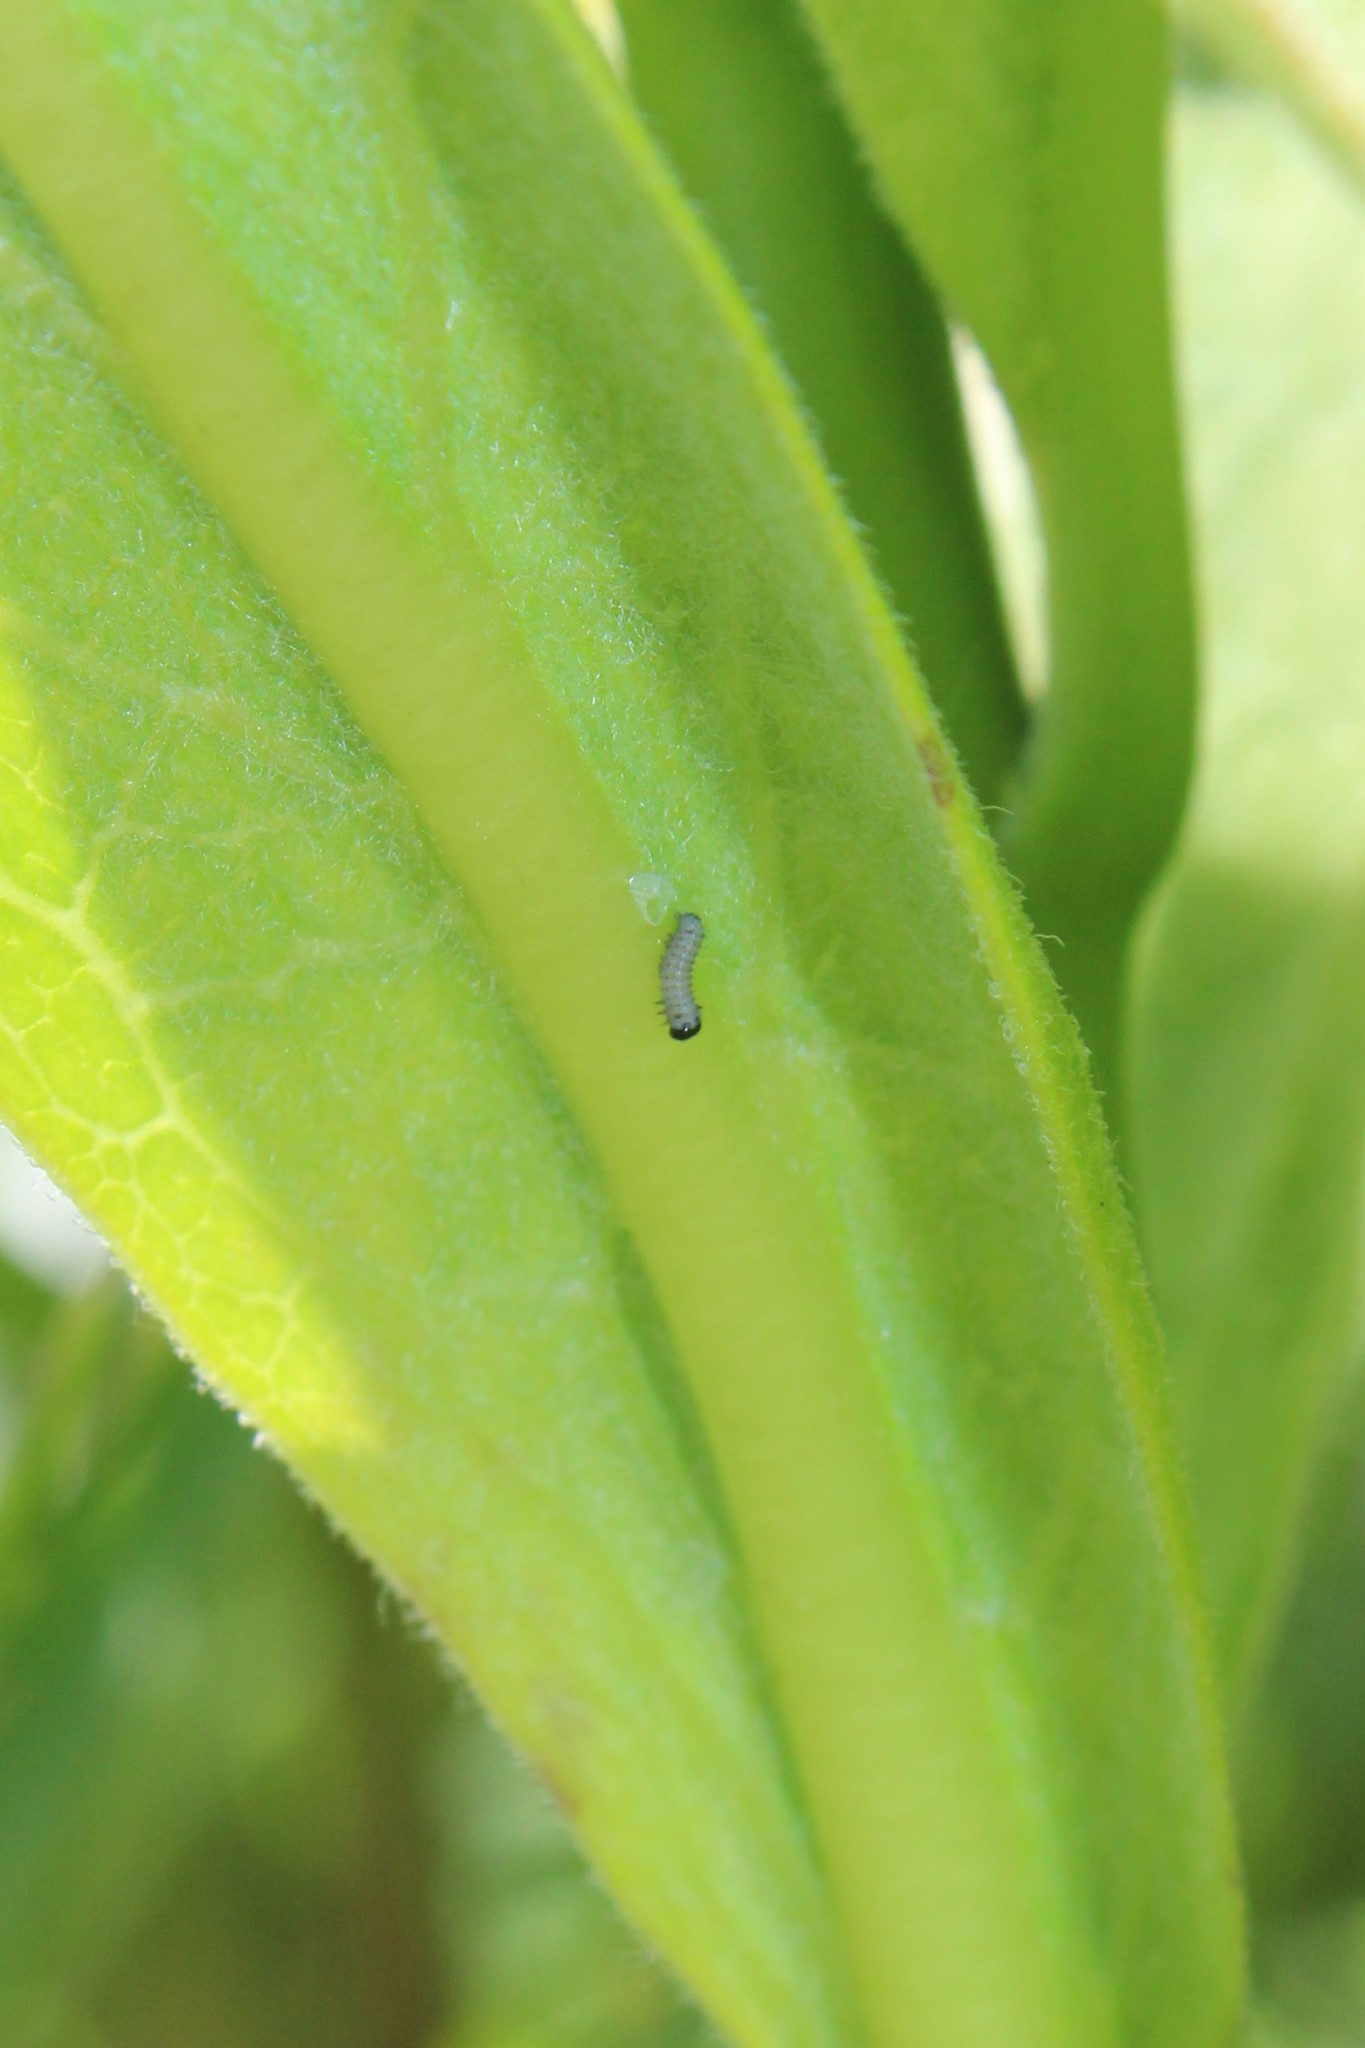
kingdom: Animalia
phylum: Arthropoda
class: Insecta
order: Lepidoptera
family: Nymphalidae
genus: Danaus
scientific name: Danaus plexippus
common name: Monarch
